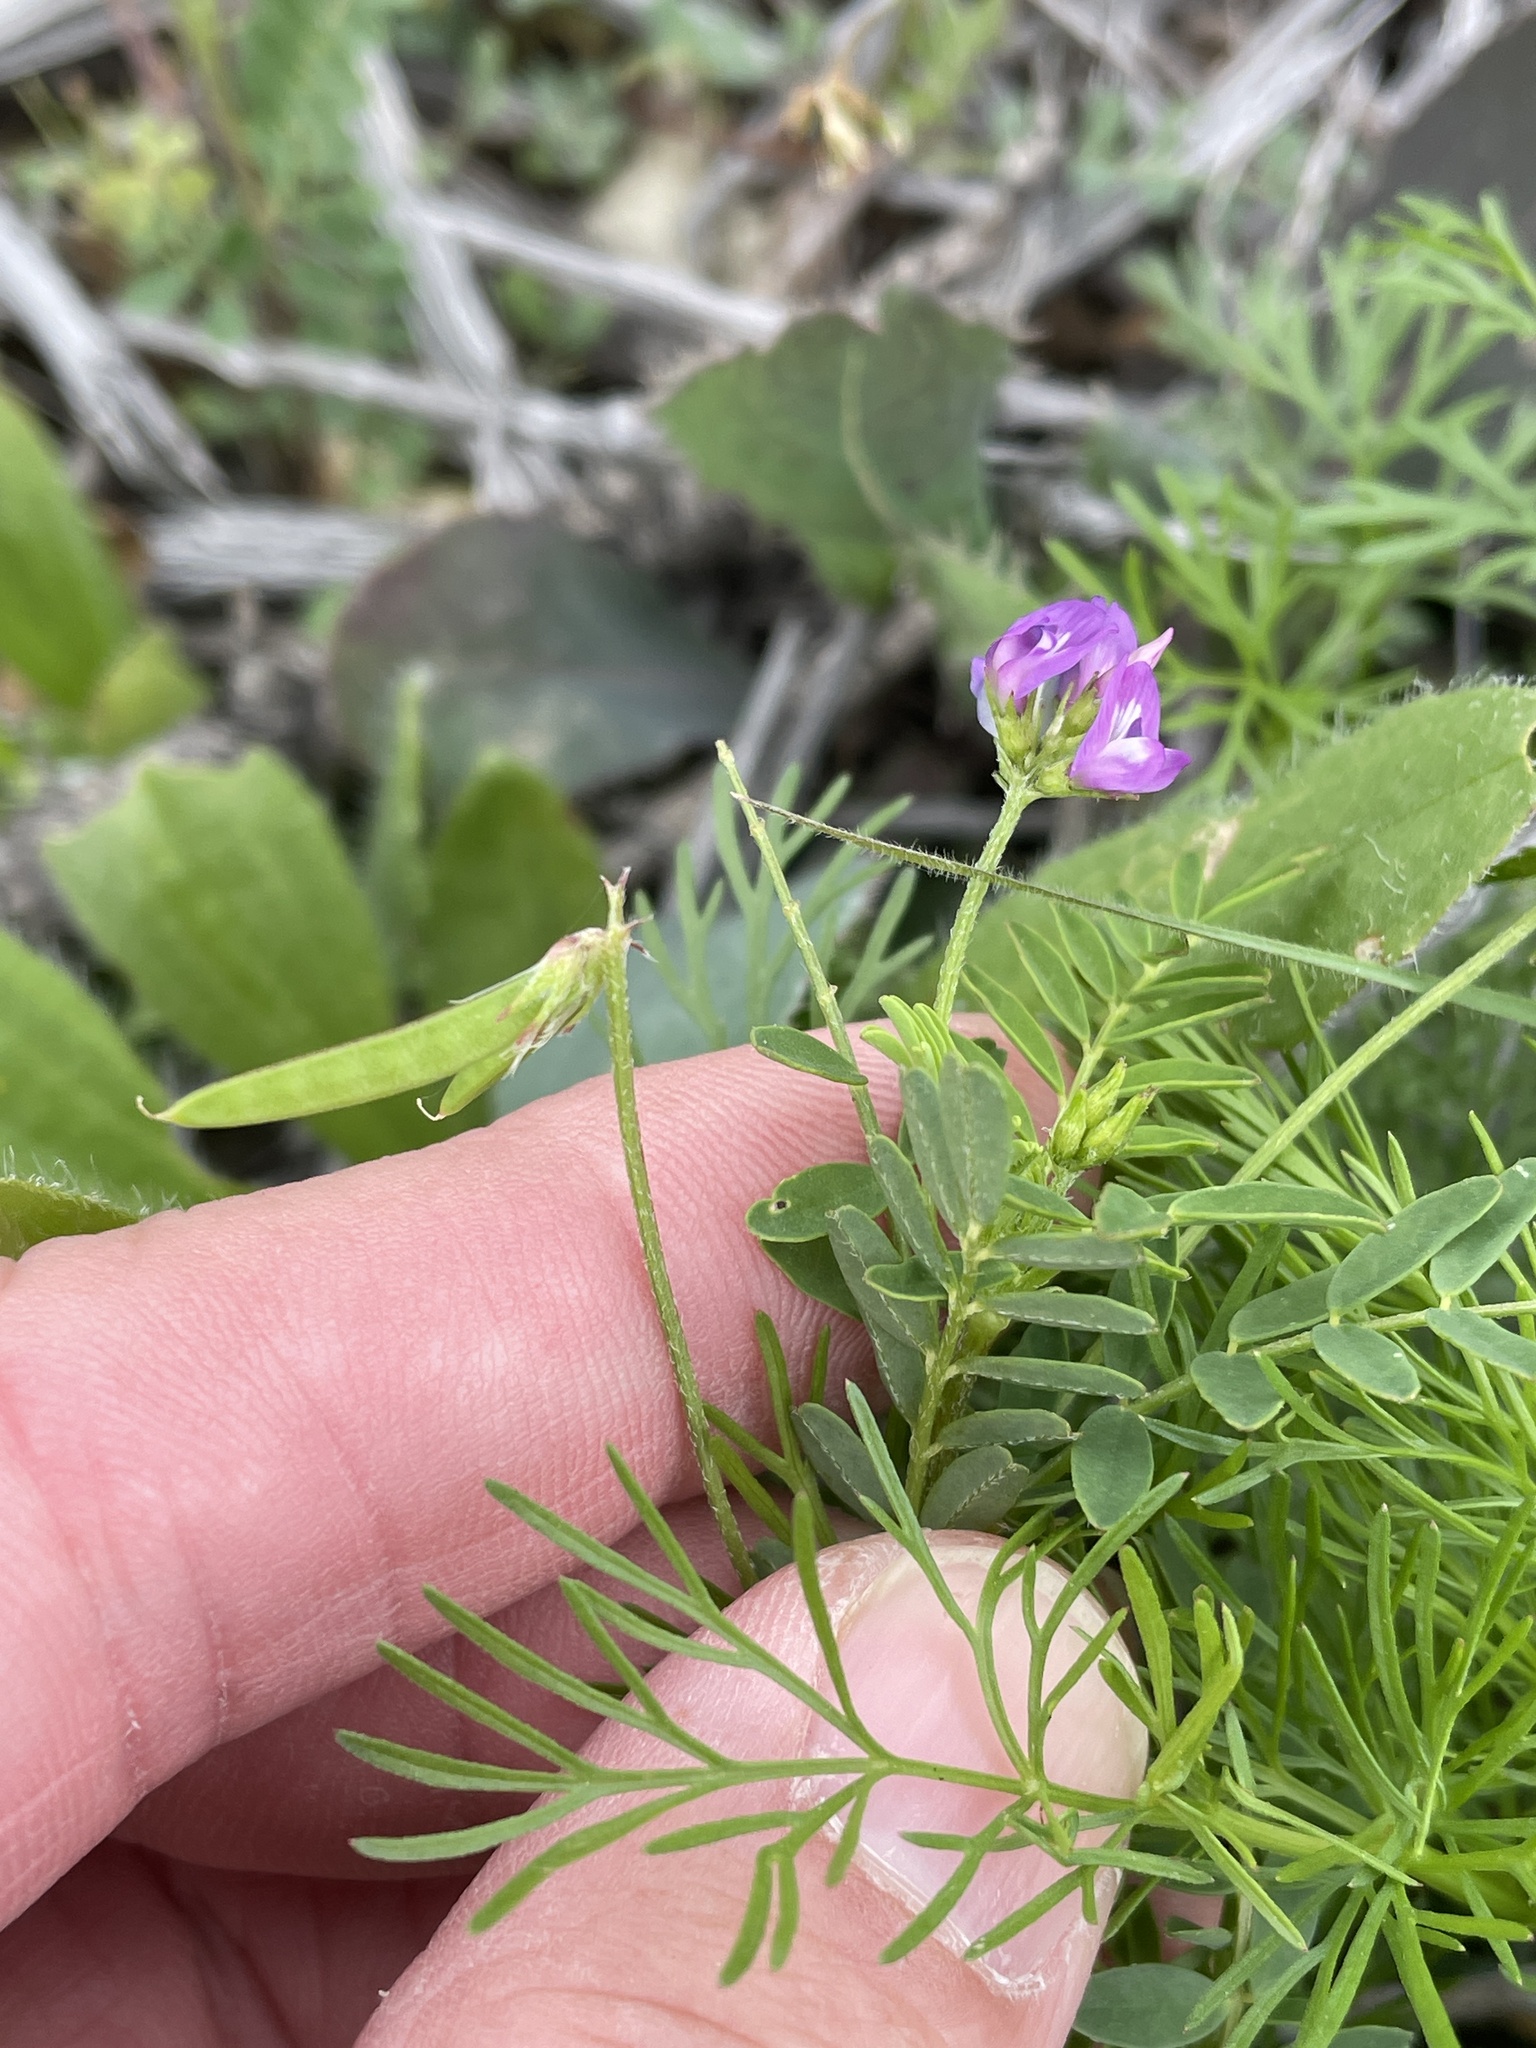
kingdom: Plantae
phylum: Tracheophyta
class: Magnoliopsida
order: Fabales
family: Fabaceae
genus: Astragalus
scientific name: Astragalus nuttallianus
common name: Smallflowered milkvetch
